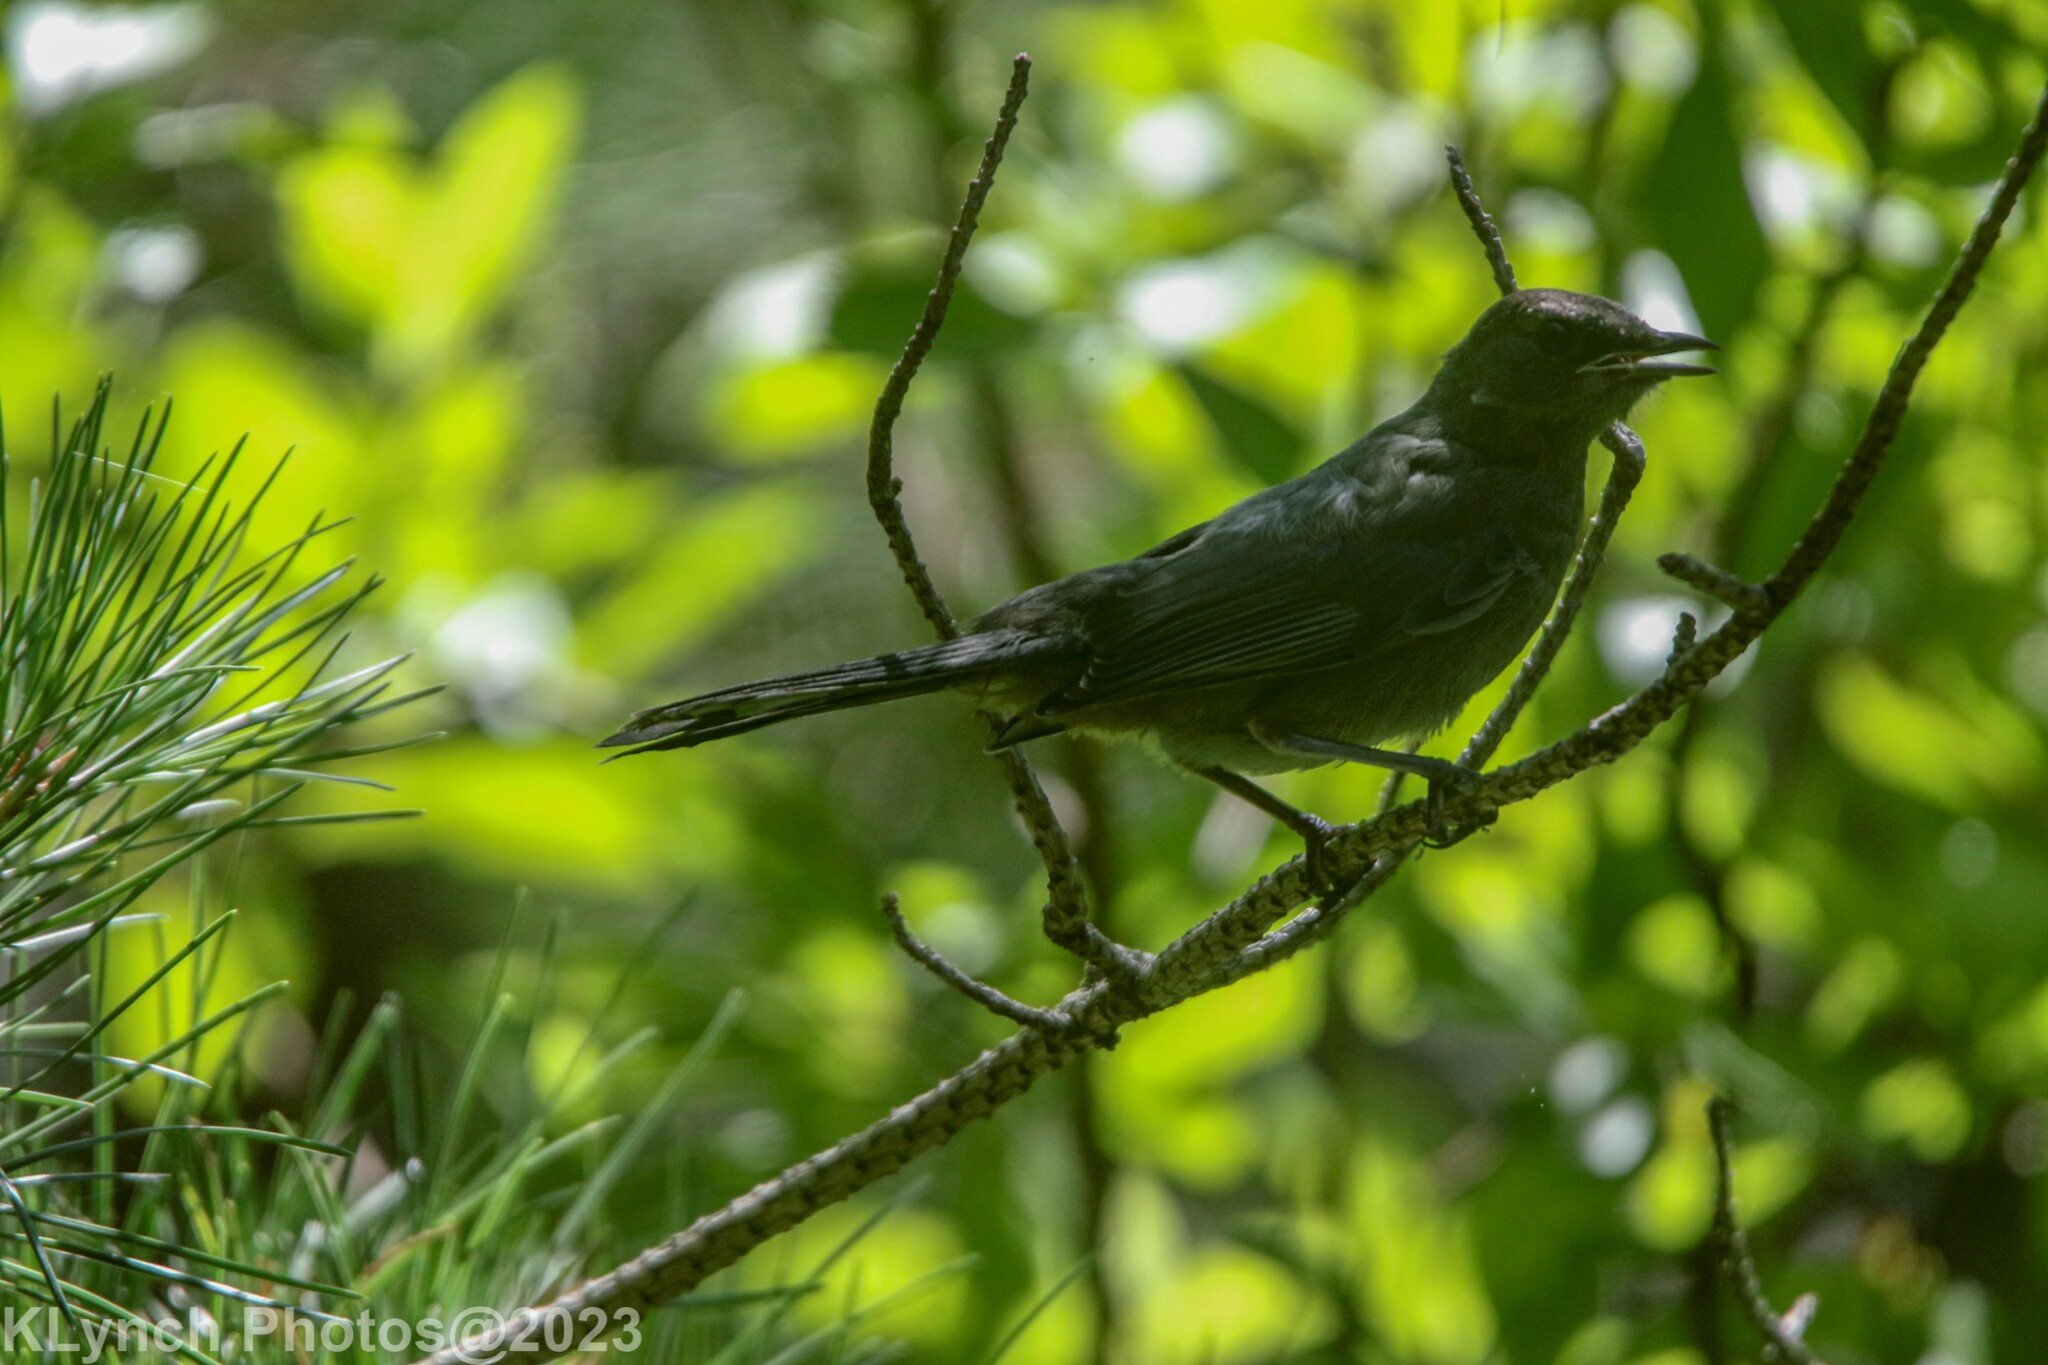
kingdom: Animalia
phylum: Chordata
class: Aves
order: Passeriformes
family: Mimidae
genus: Dumetella
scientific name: Dumetella carolinensis
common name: Gray catbird
